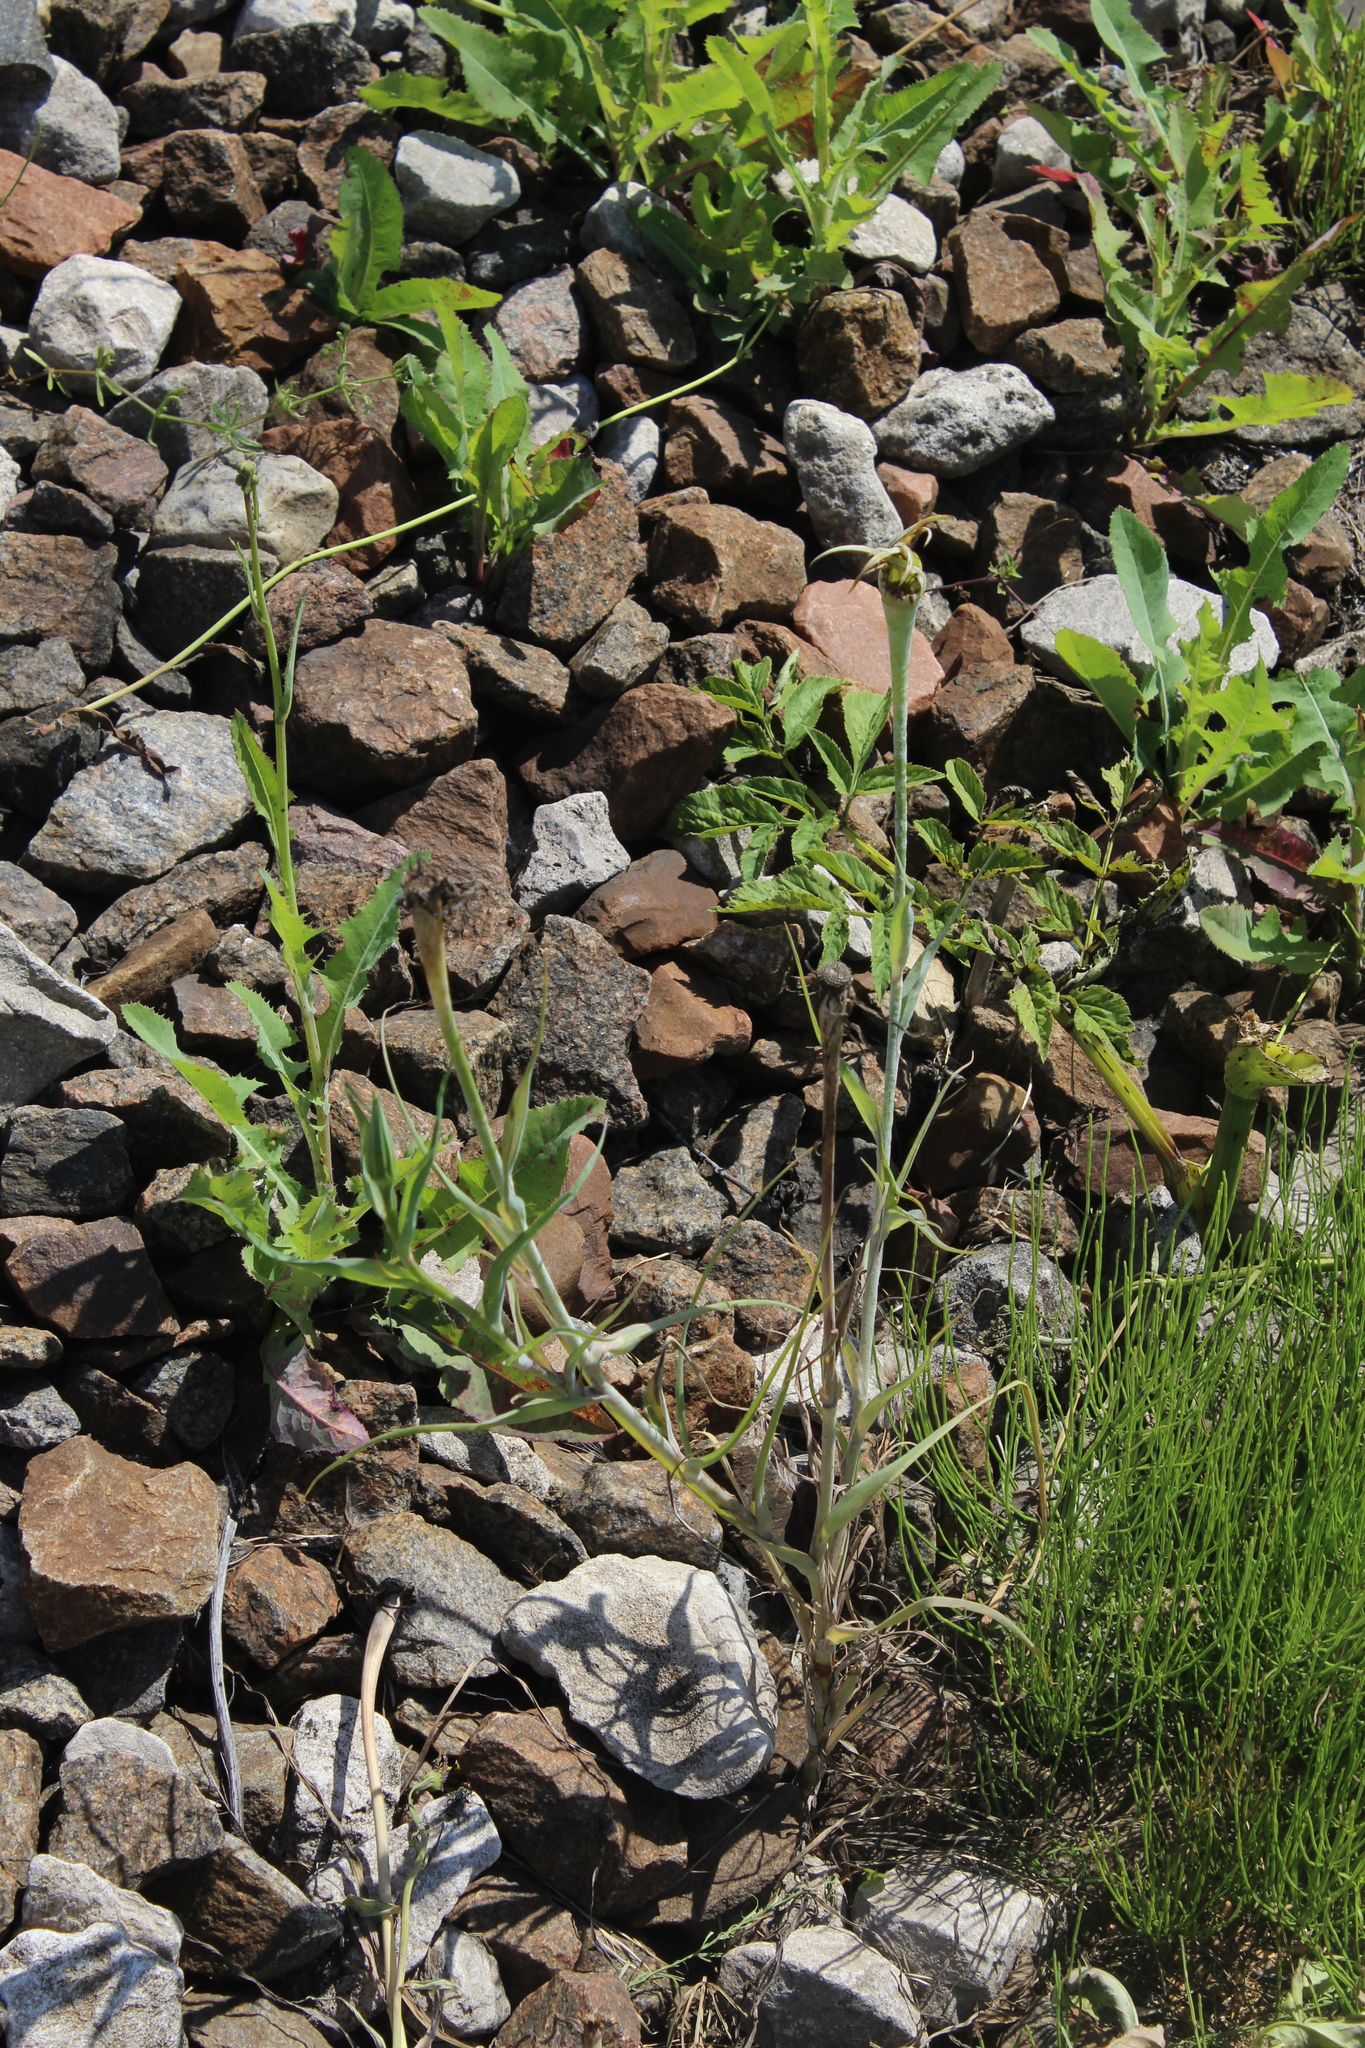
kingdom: Plantae
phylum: Tracheophyta
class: Magnoliopsida
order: Asterales
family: Asteraceae
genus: Tragopogon
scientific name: Tragopogon dubius
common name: Yellow salsify
